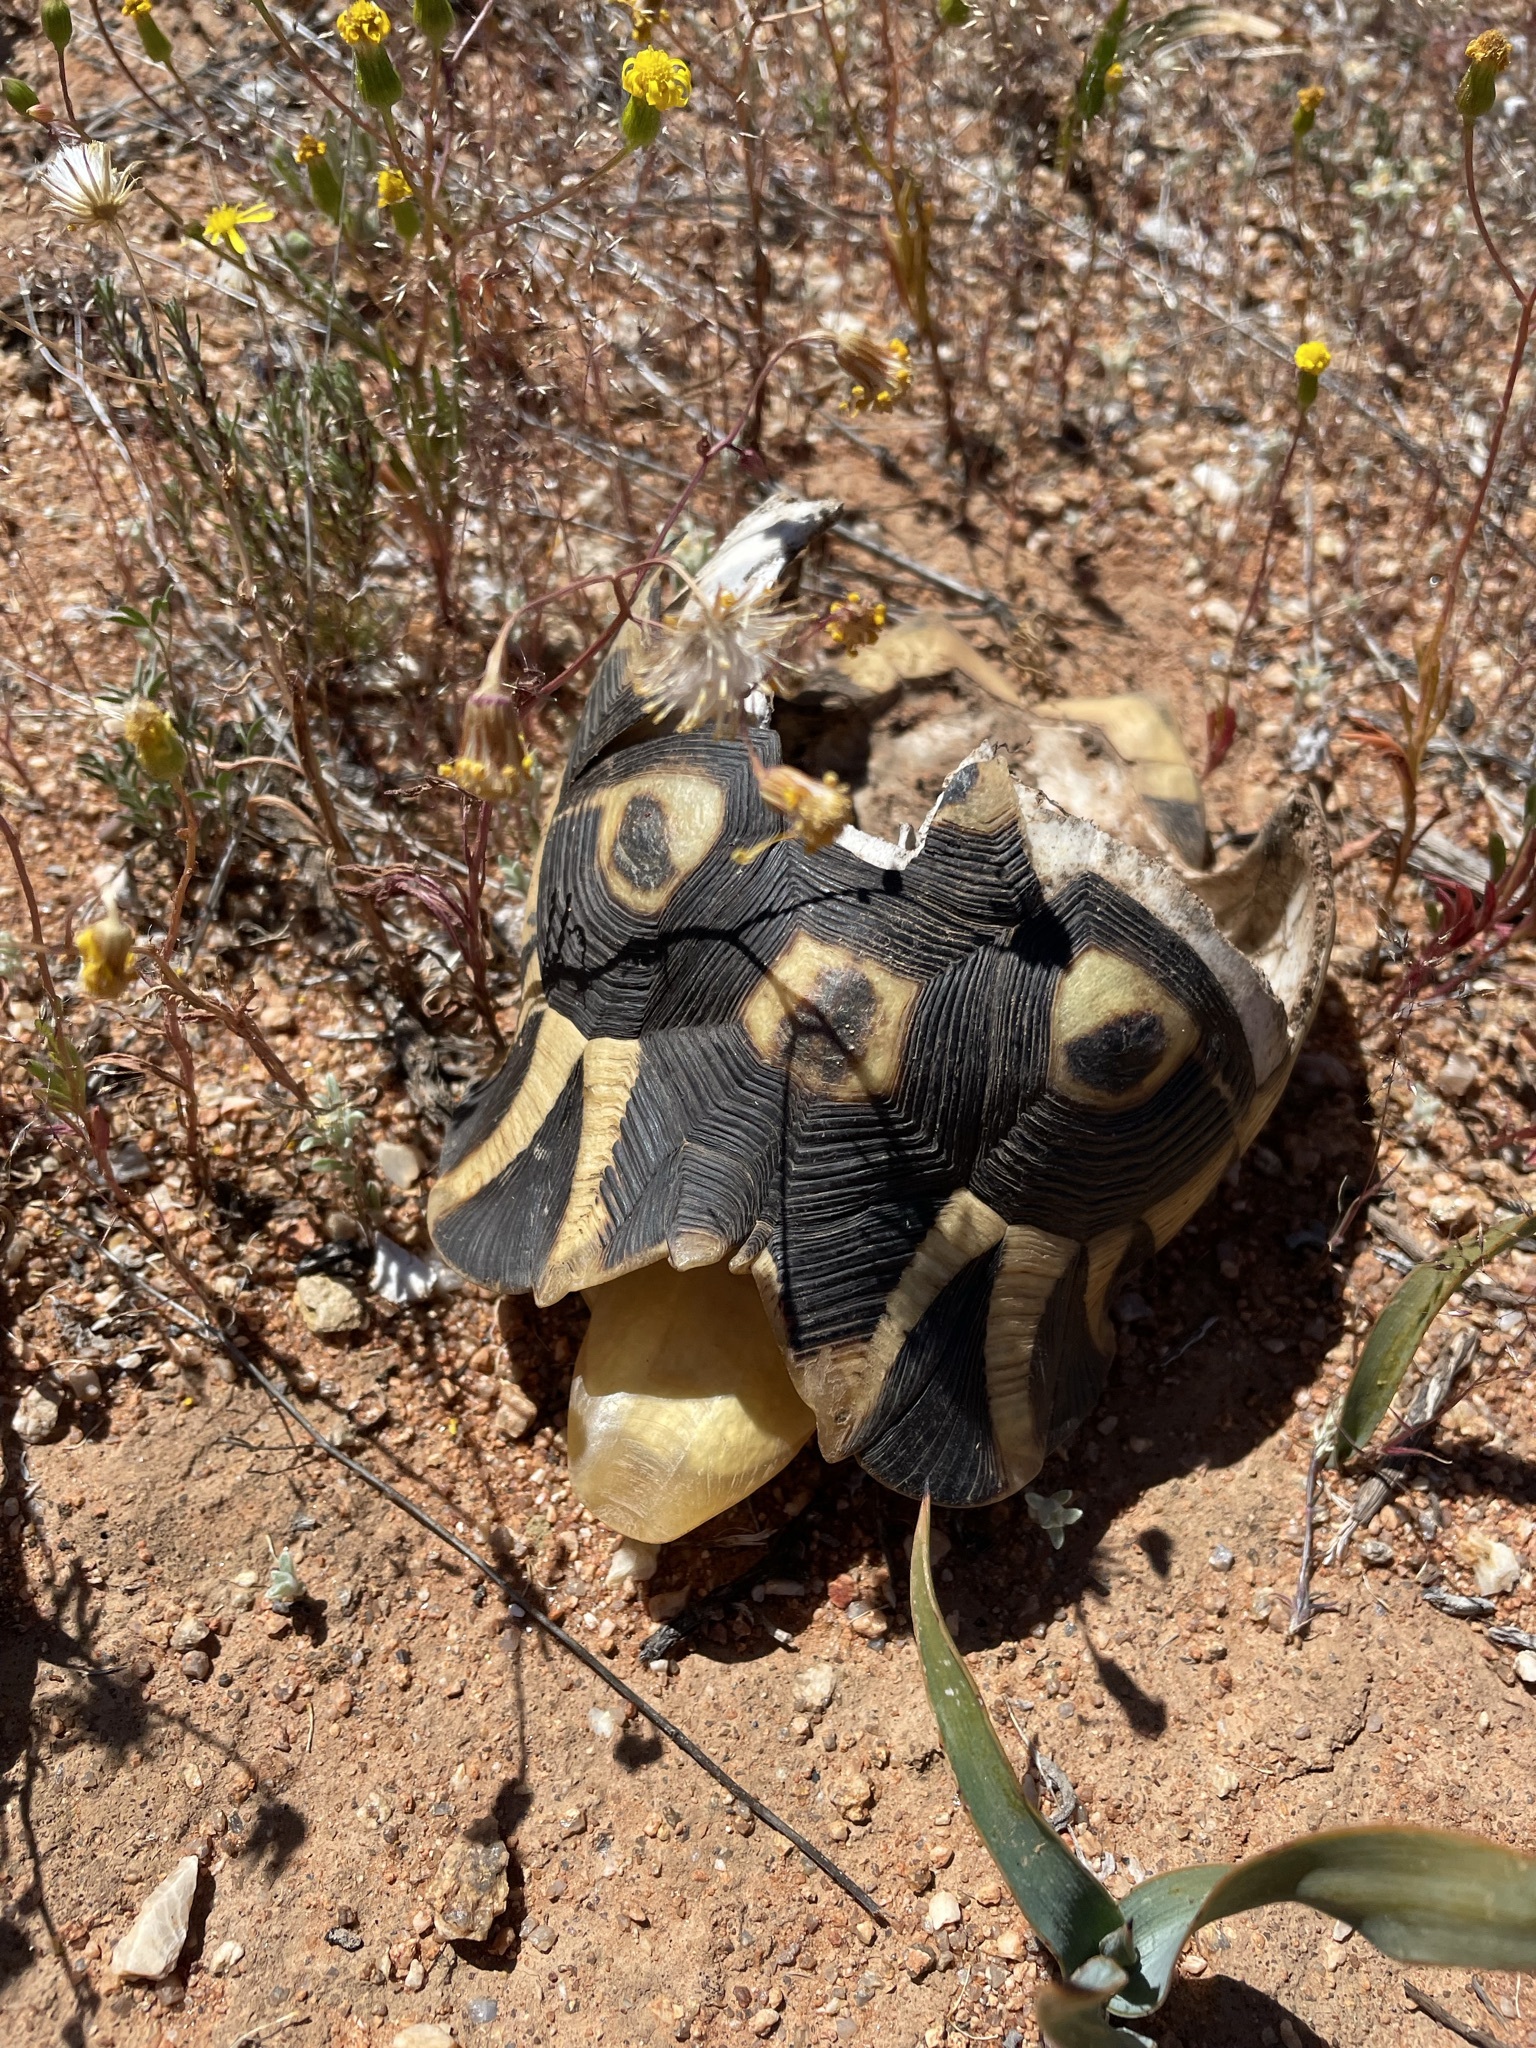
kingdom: Animalia
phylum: Chordata
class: Testudines
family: Testudinidae
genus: Chersina
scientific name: Chersina angulata
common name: South african bowsprit tortoise
